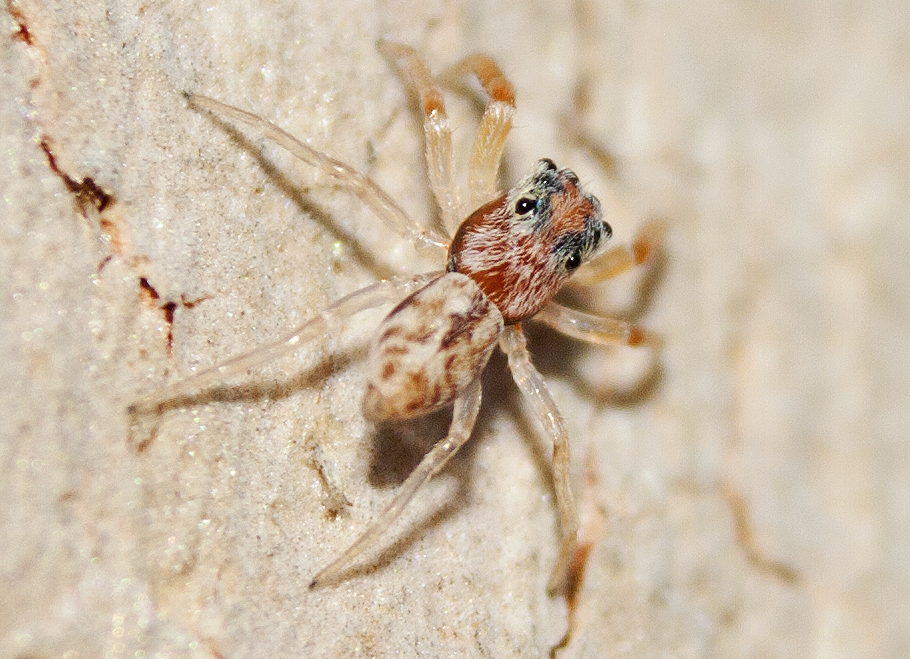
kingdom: Animalia
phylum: Arthropoda
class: Arachnida
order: Araneae
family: Salticidae
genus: Arasia
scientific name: Arasia mollicoma
